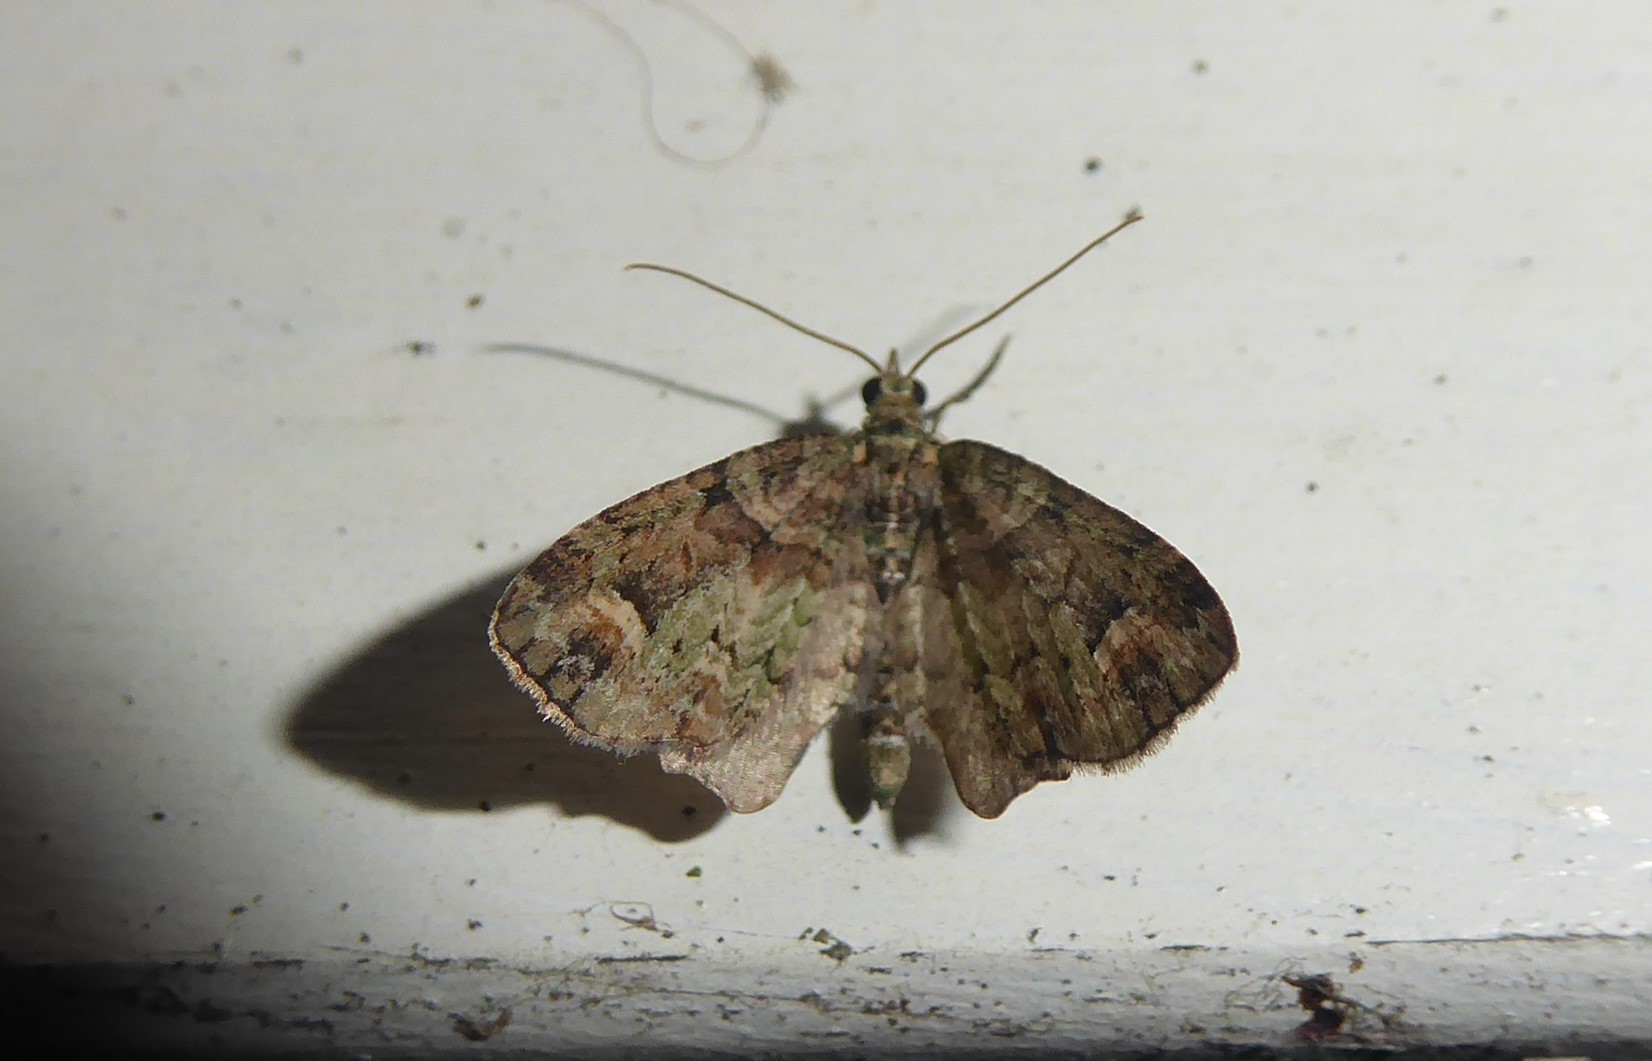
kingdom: Animalia
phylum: Arthropoda
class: Insecta
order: Lepidoptera
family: Geometridae
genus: Idaea
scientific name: Idaea mutanda
